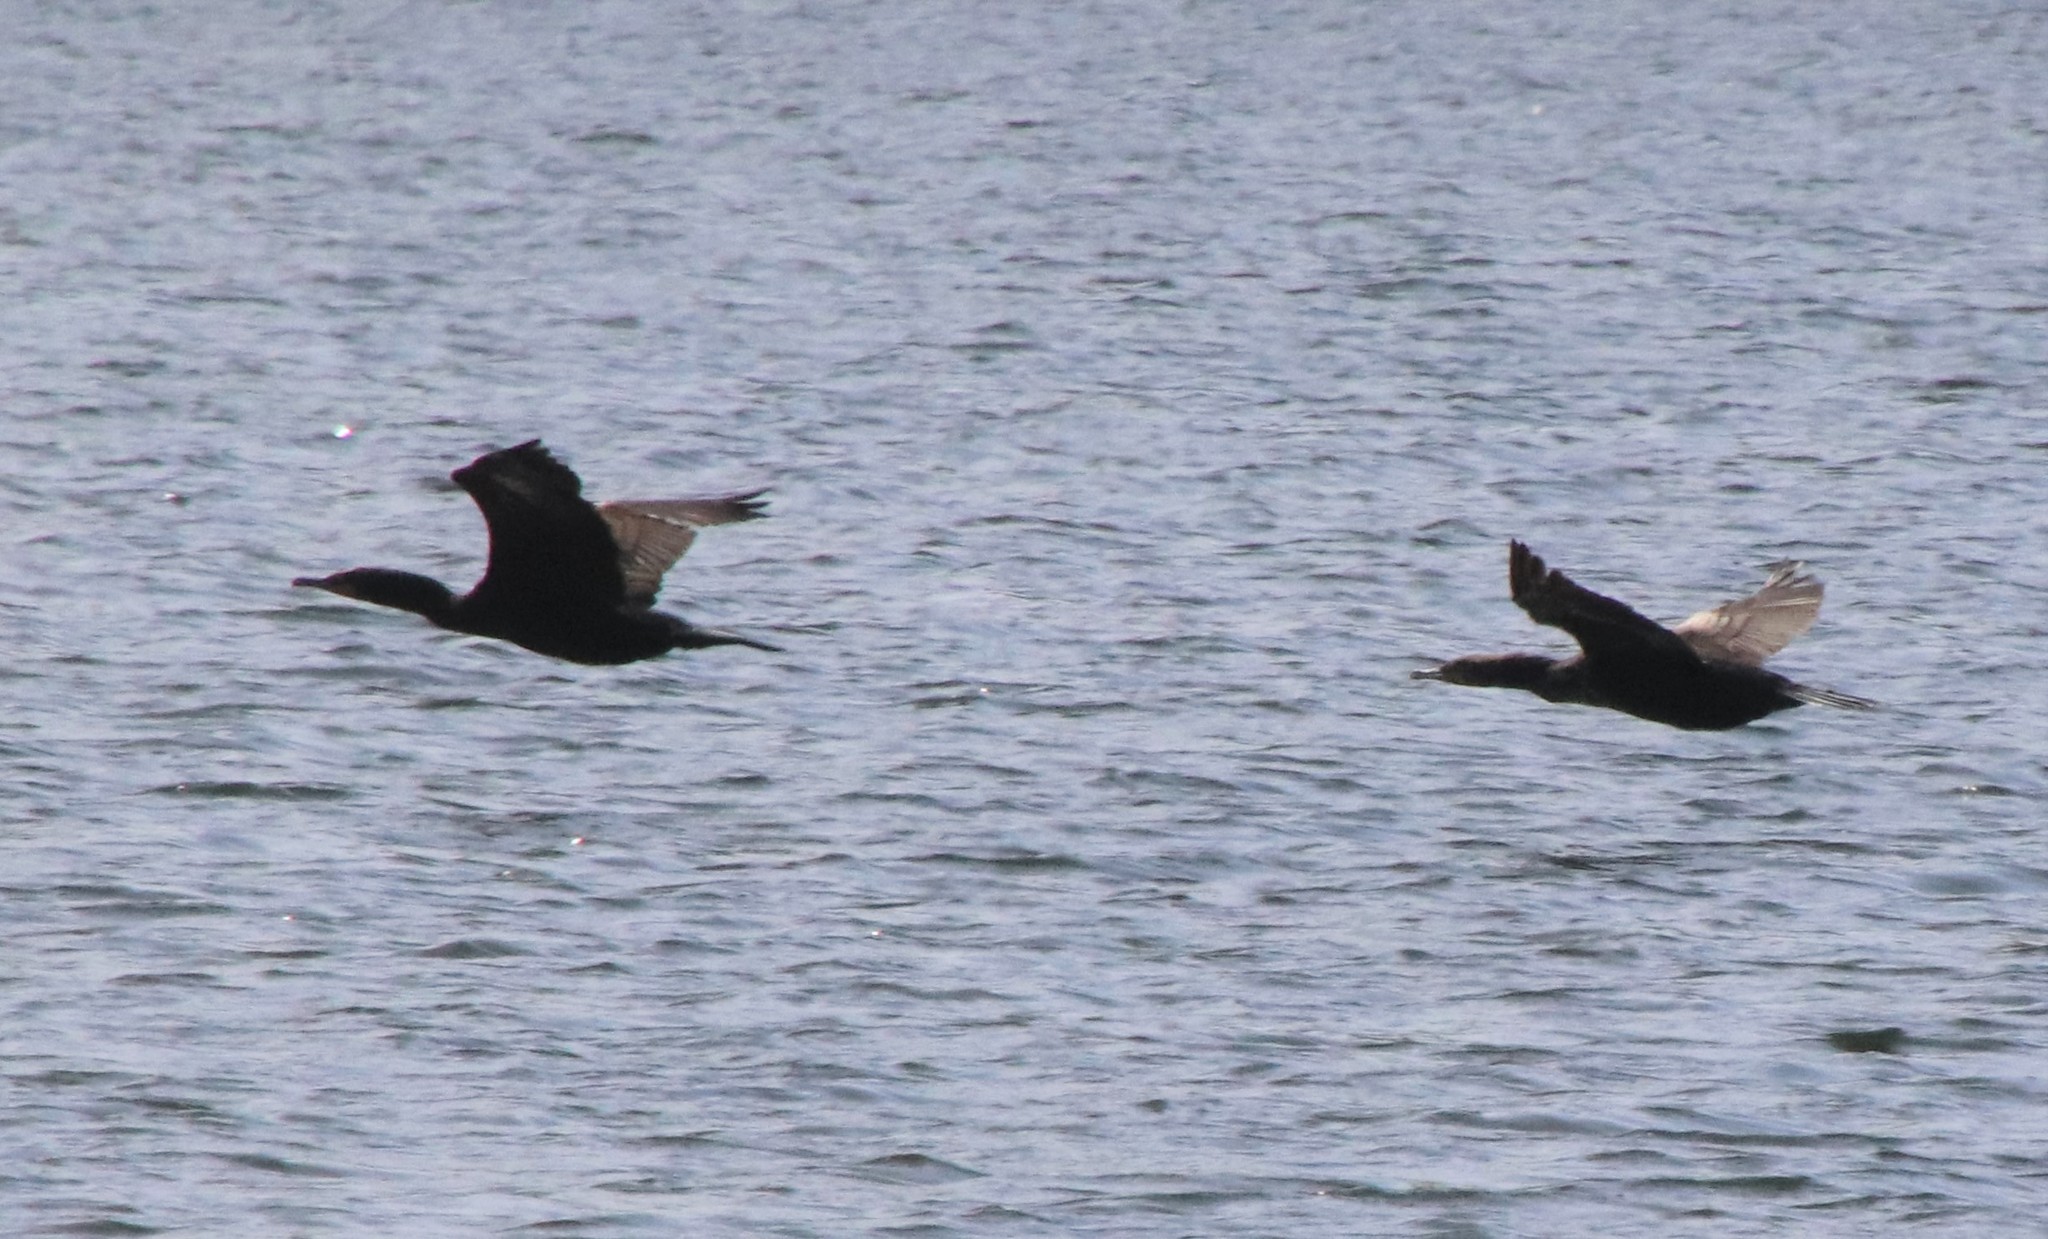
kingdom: Animalia
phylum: Chordata
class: Aves
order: Suliformes
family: Phalacrocoracidae
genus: Phalacrocorax
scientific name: Phalacrocorax auritus
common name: Double-crested cormorant
